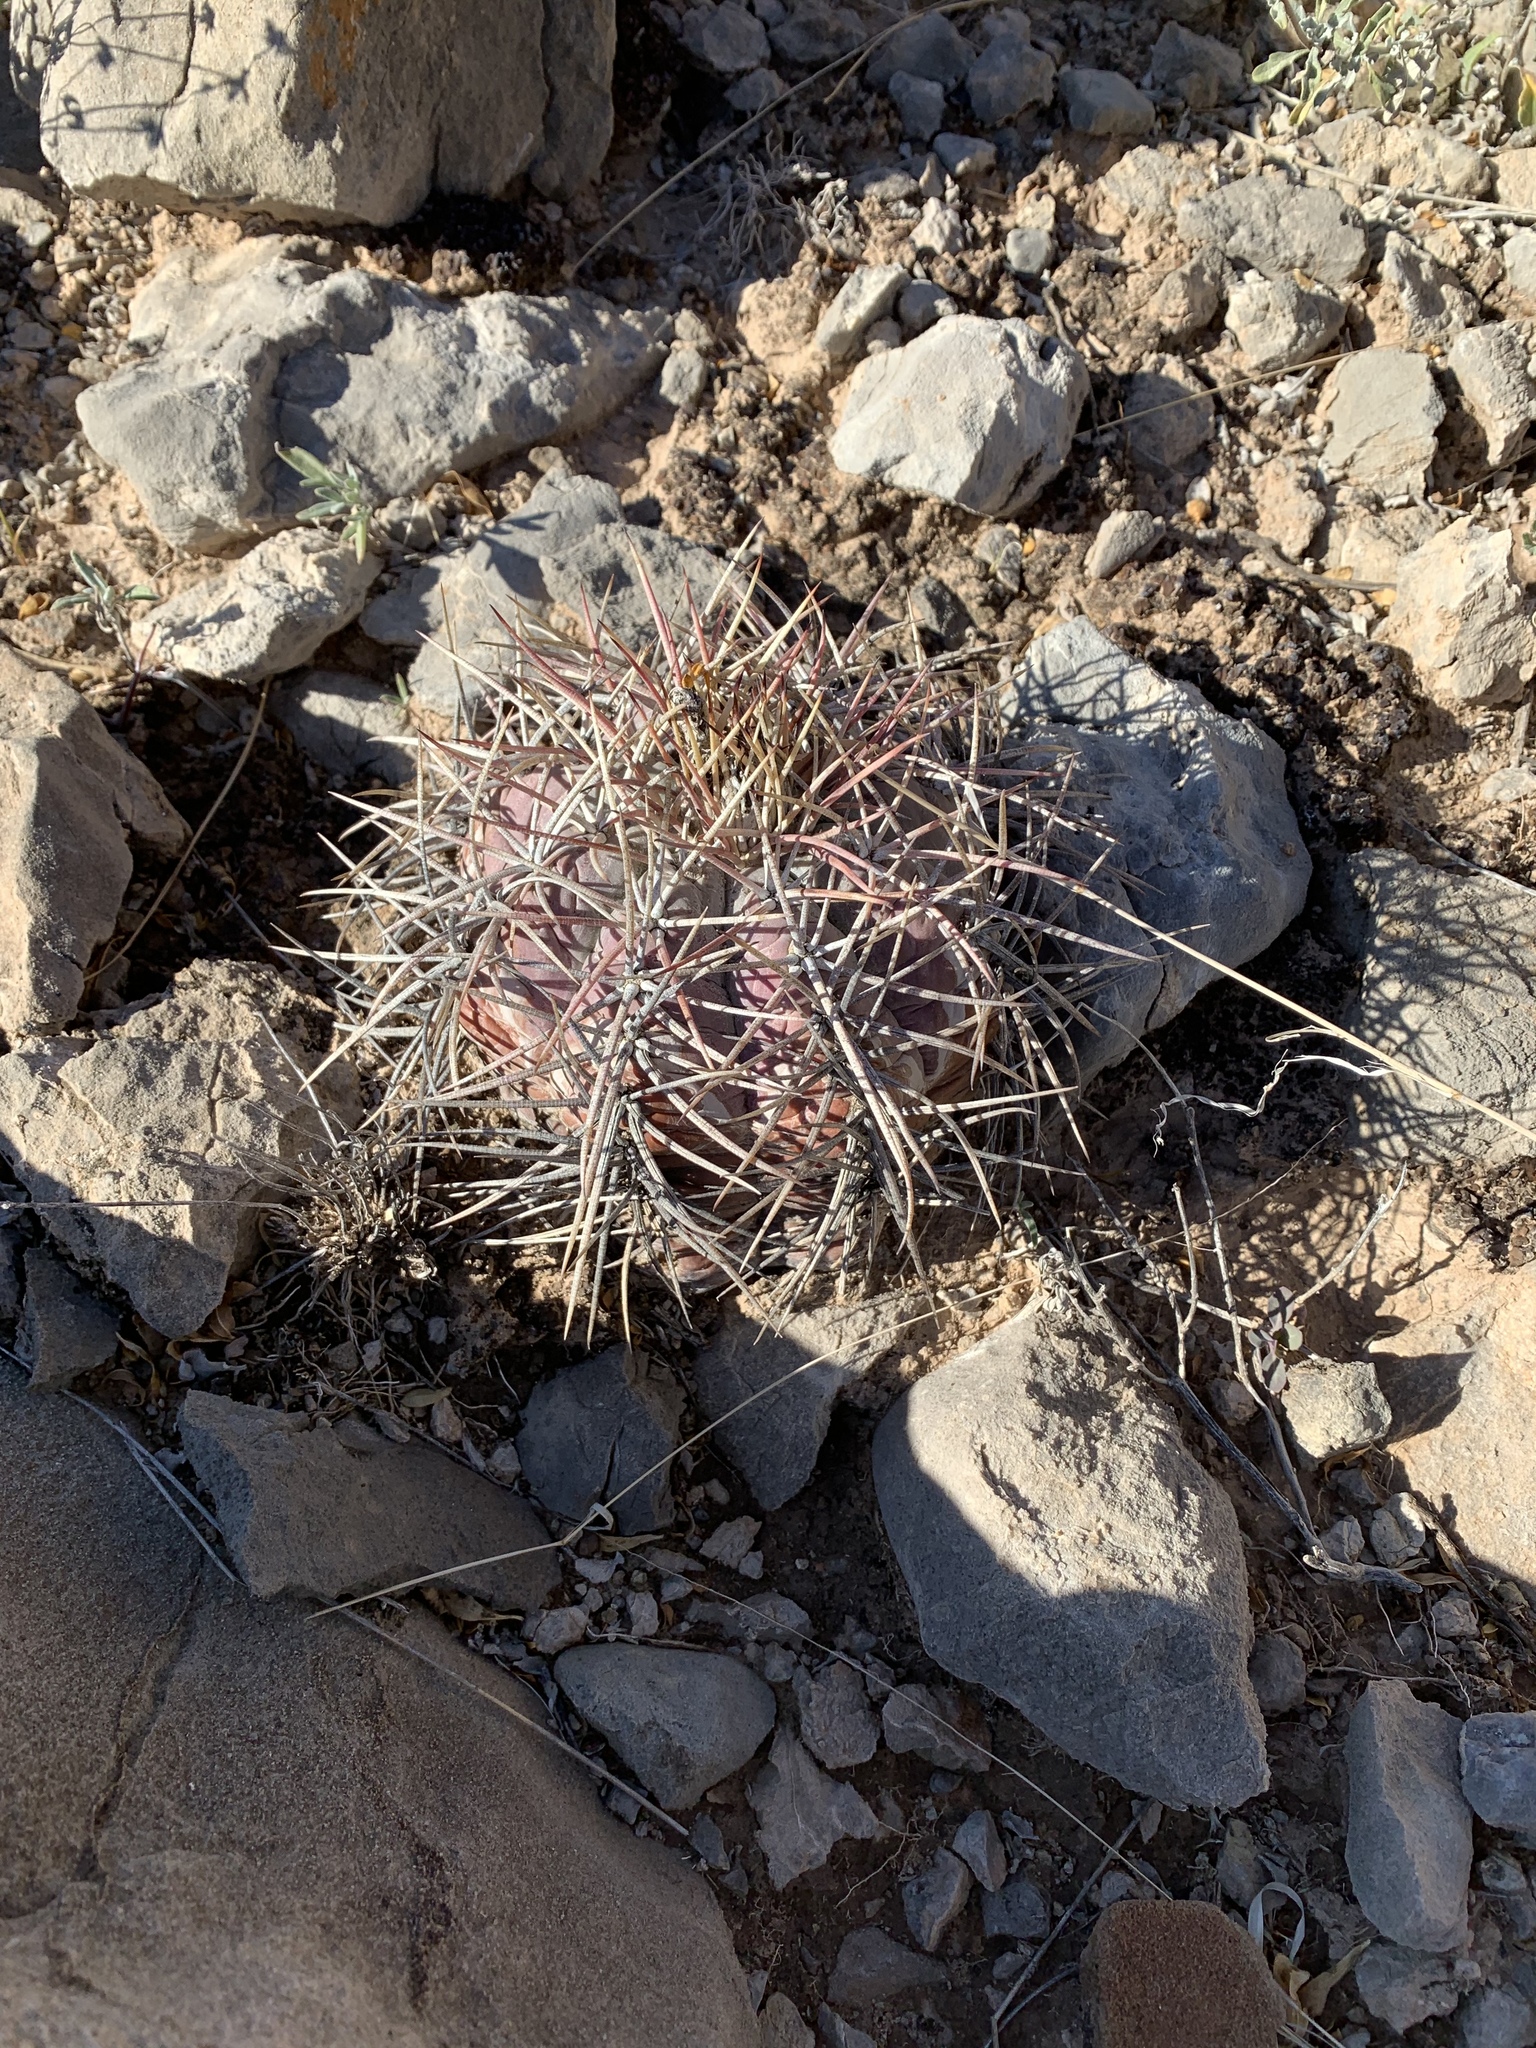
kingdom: Plantae
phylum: Tracheophyta
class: Magnoliopsida
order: Caryophyllales
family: Cactaceae
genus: Echinocactus
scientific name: Echinocactus horizonthalonius
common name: Devilshead
